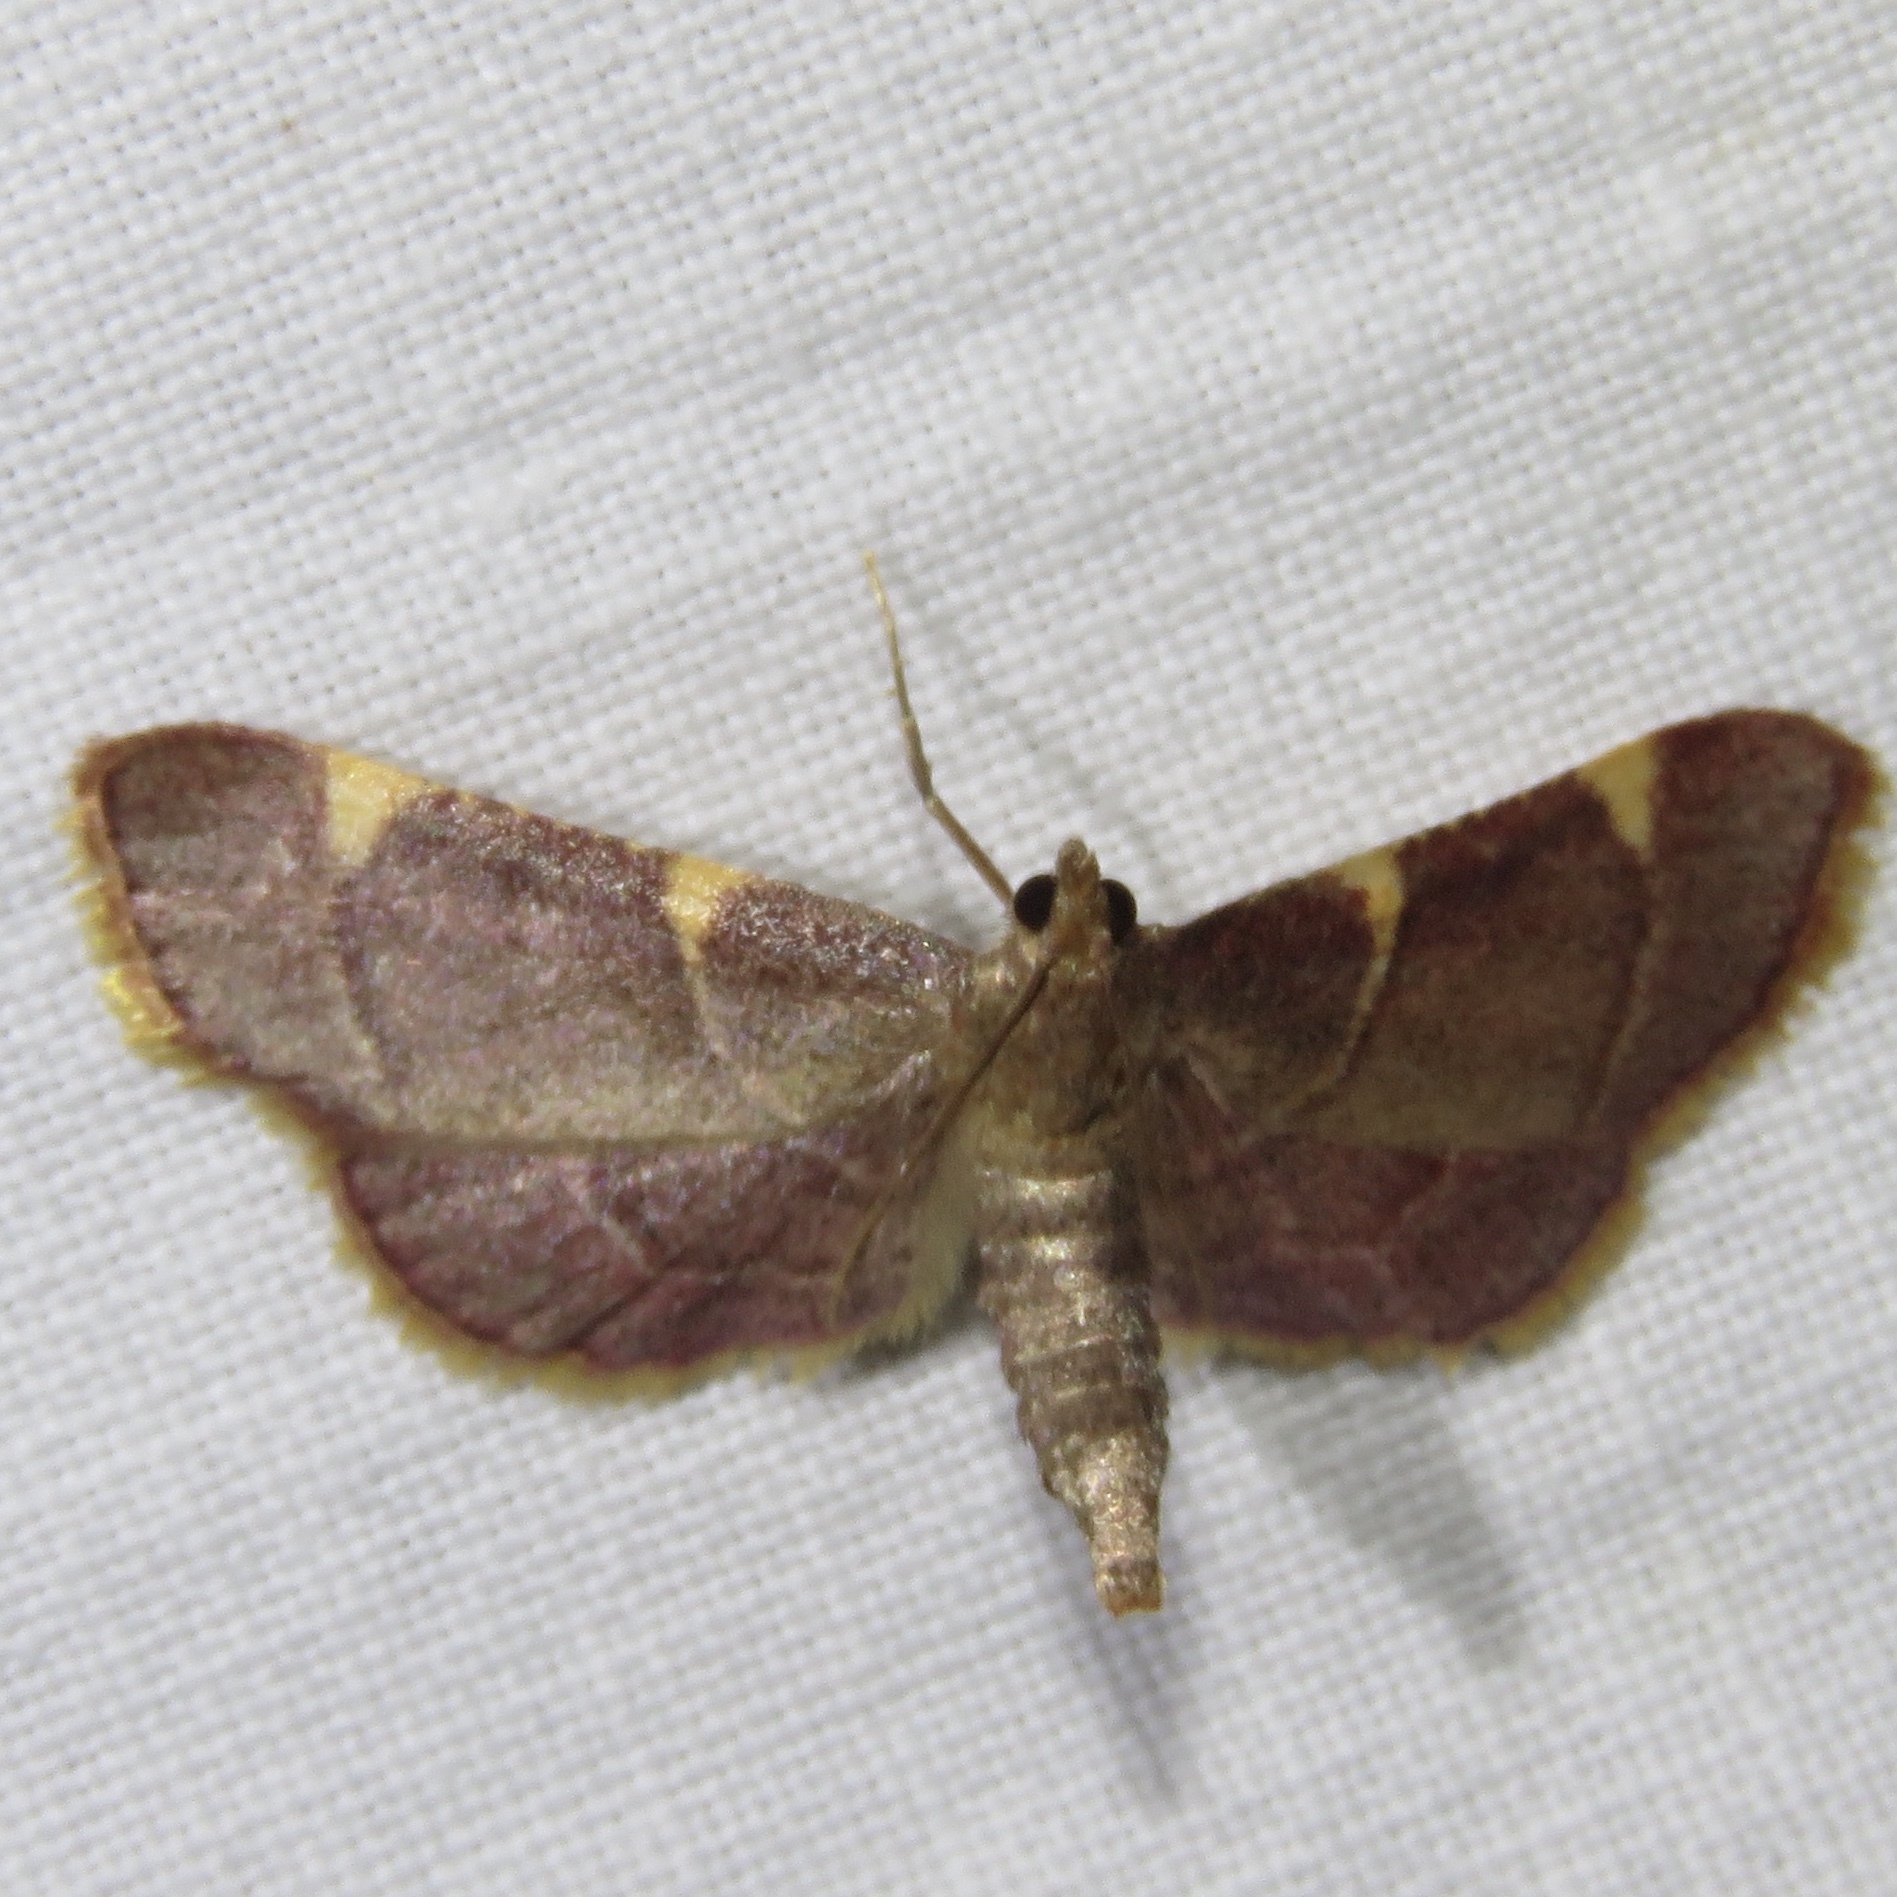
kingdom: Animalia
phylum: Arthropoda
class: Insecta
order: Lepidoptera
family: Pyralidae
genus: Hypsopygia
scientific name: Hypsopygia olinalis
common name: Yellow-fringed dolichomia moth
